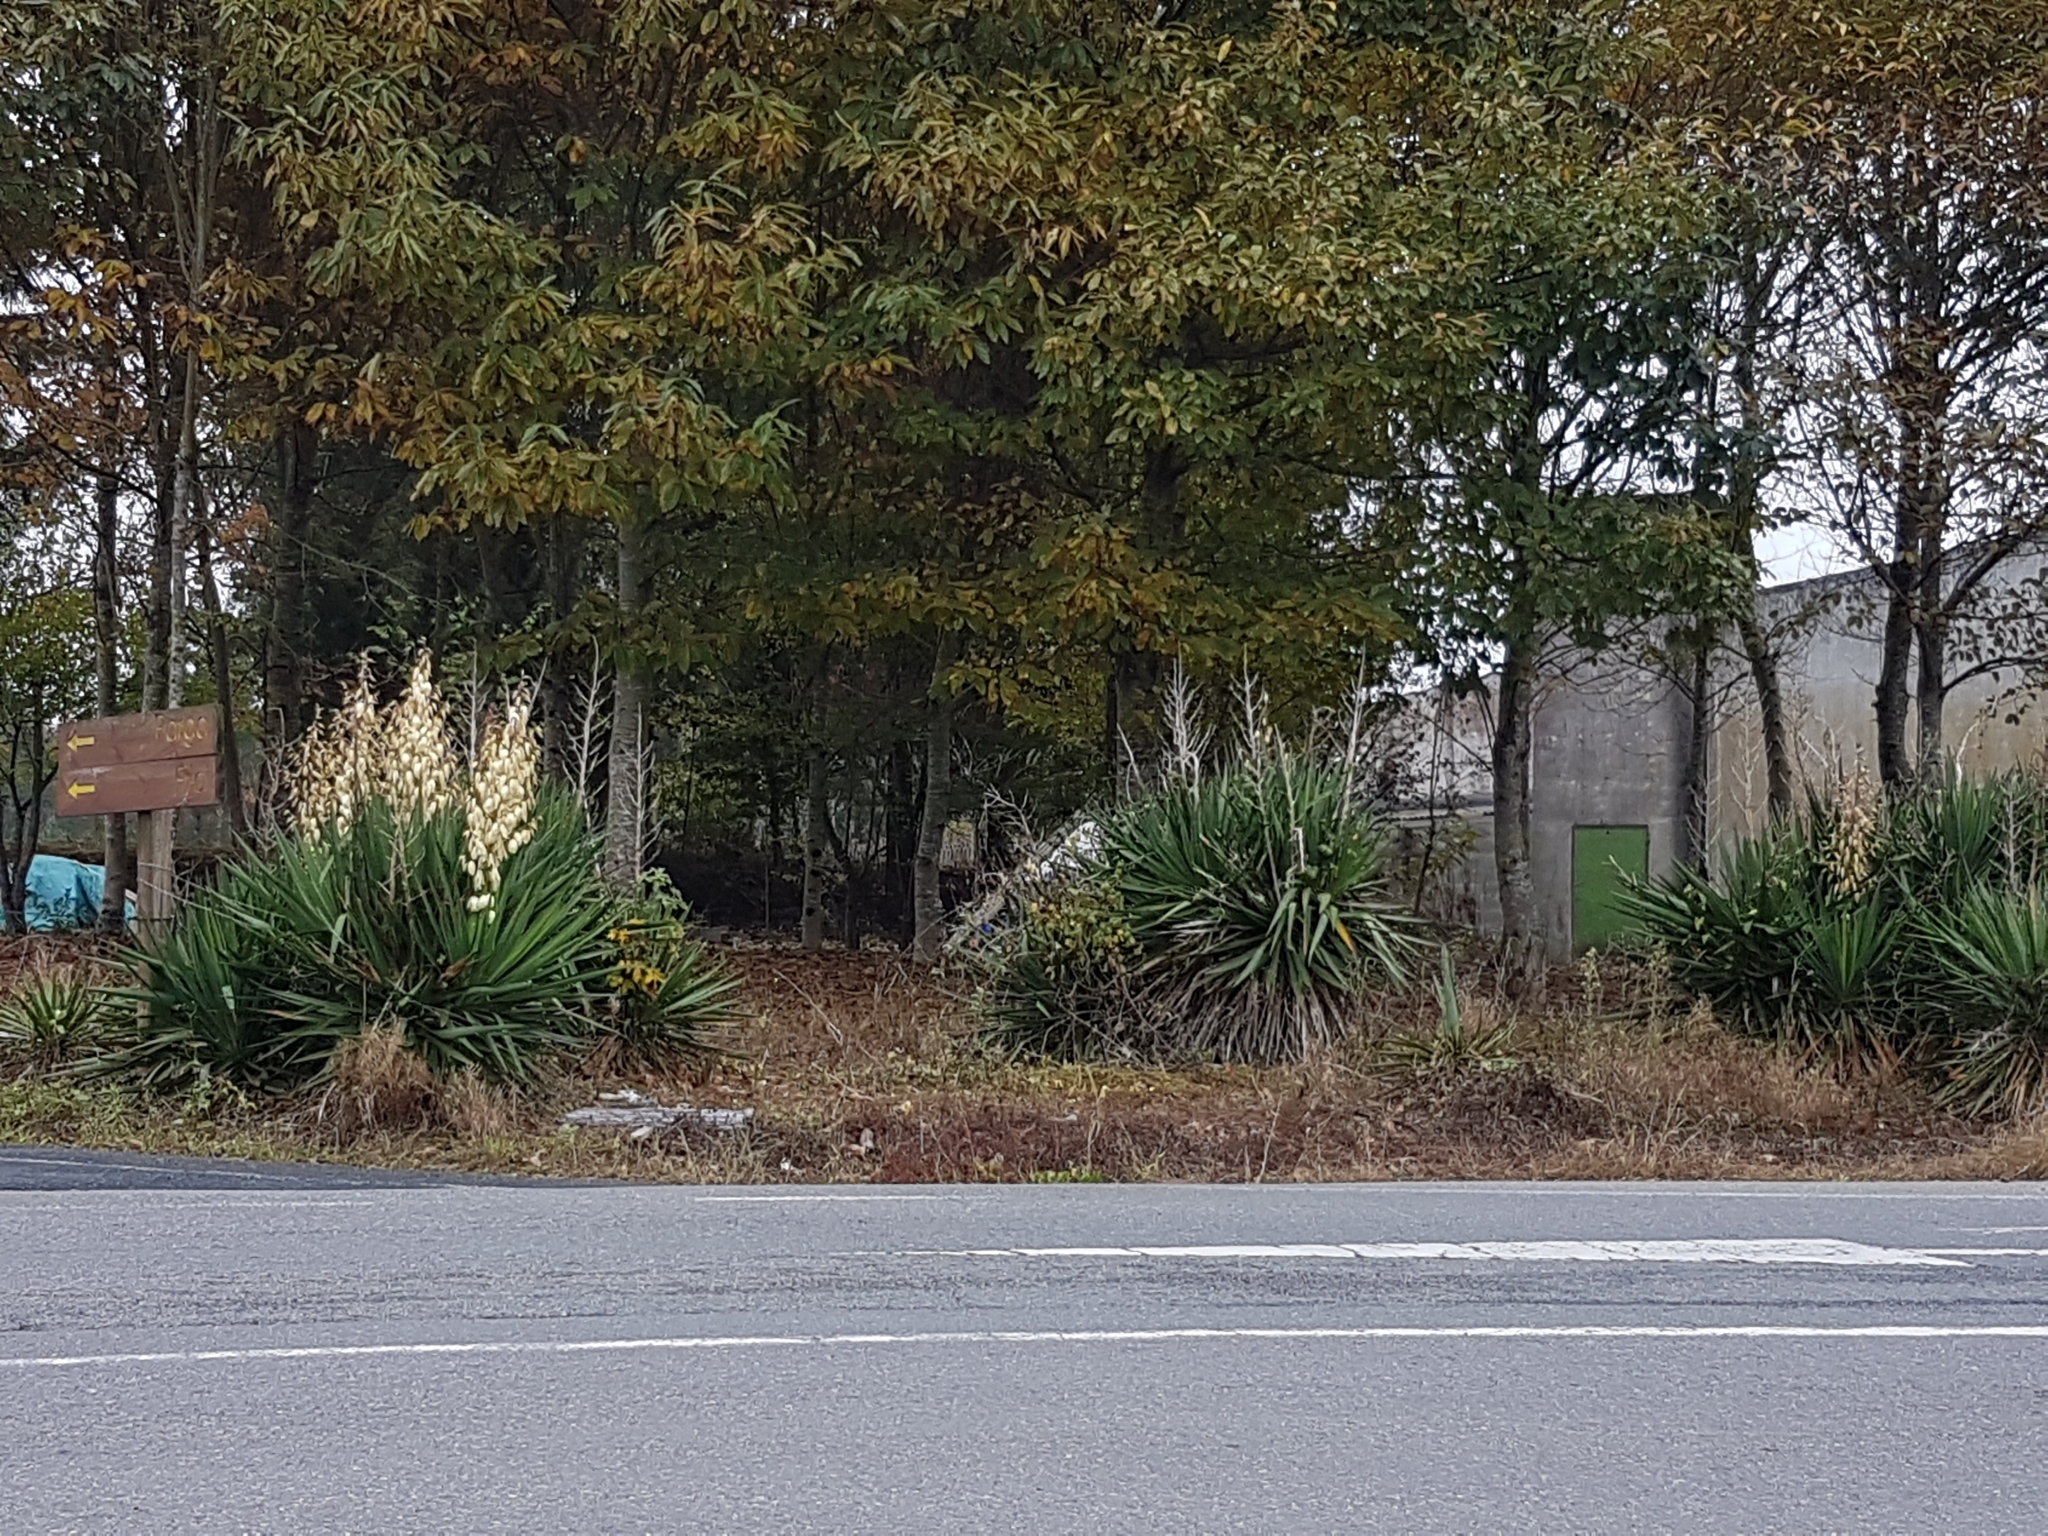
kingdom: Plantae
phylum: Tracheophyta
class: Liliopsida
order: Asparagales
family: Asparagaceae
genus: Yucca
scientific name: Yucca gloriosa
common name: Spanish-dagger
